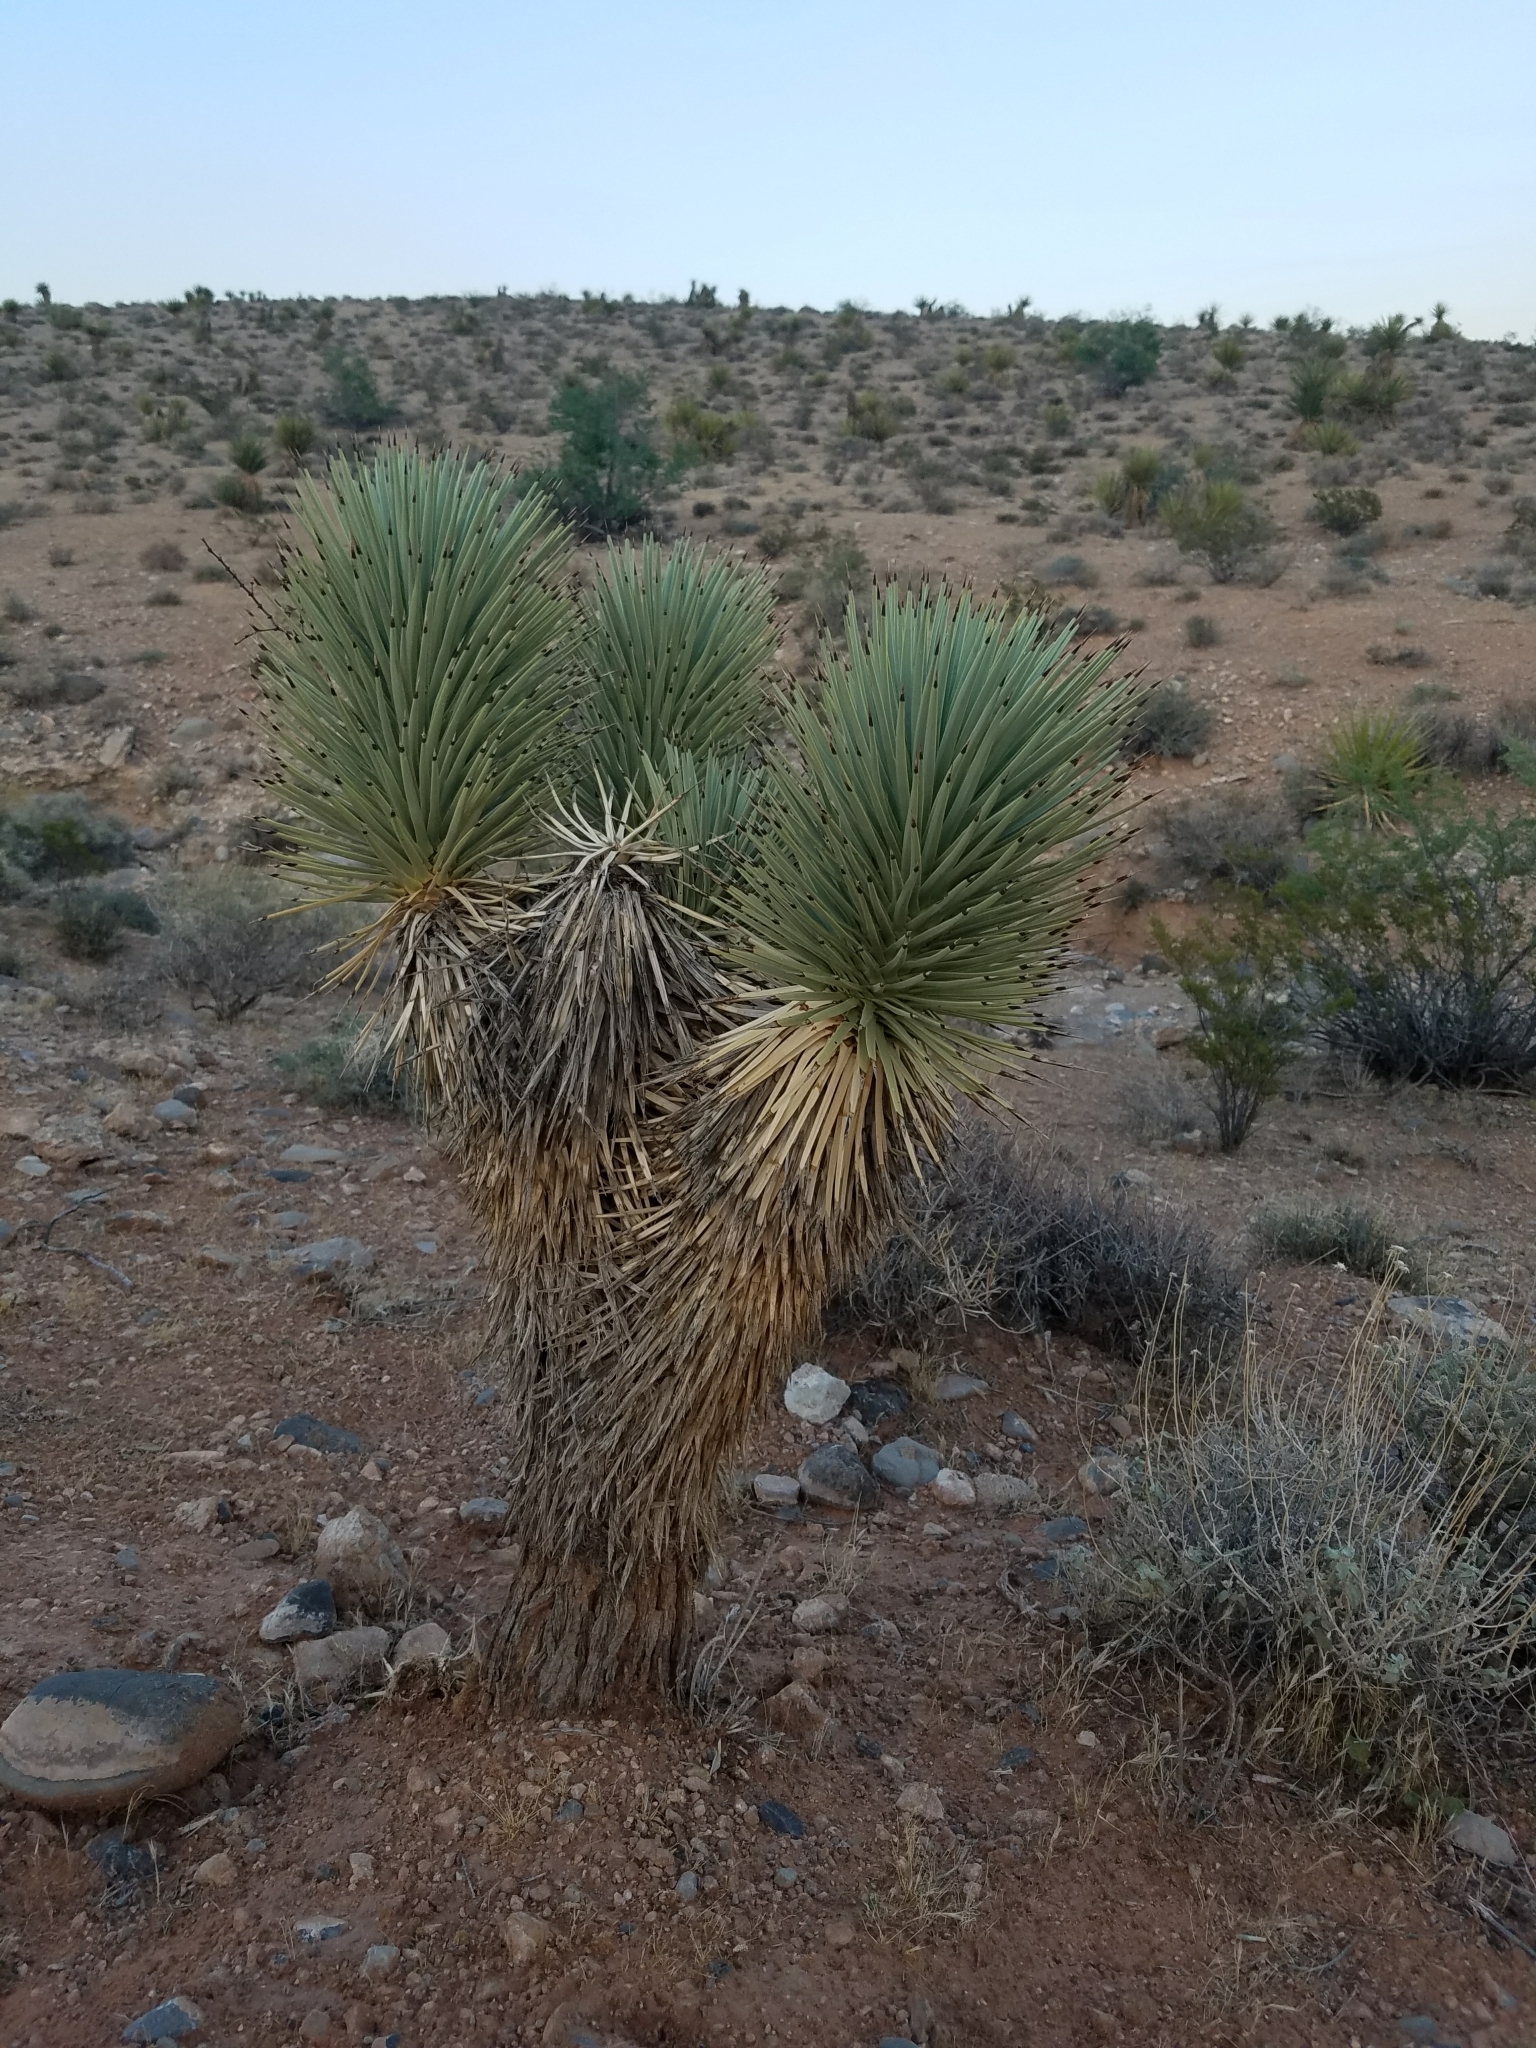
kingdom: Plantae
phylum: Tracheophyta
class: Liliopsida
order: Asparagales
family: Asparagaceae
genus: Yucca
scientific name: Yucca brevifolia
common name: Joshua tree
